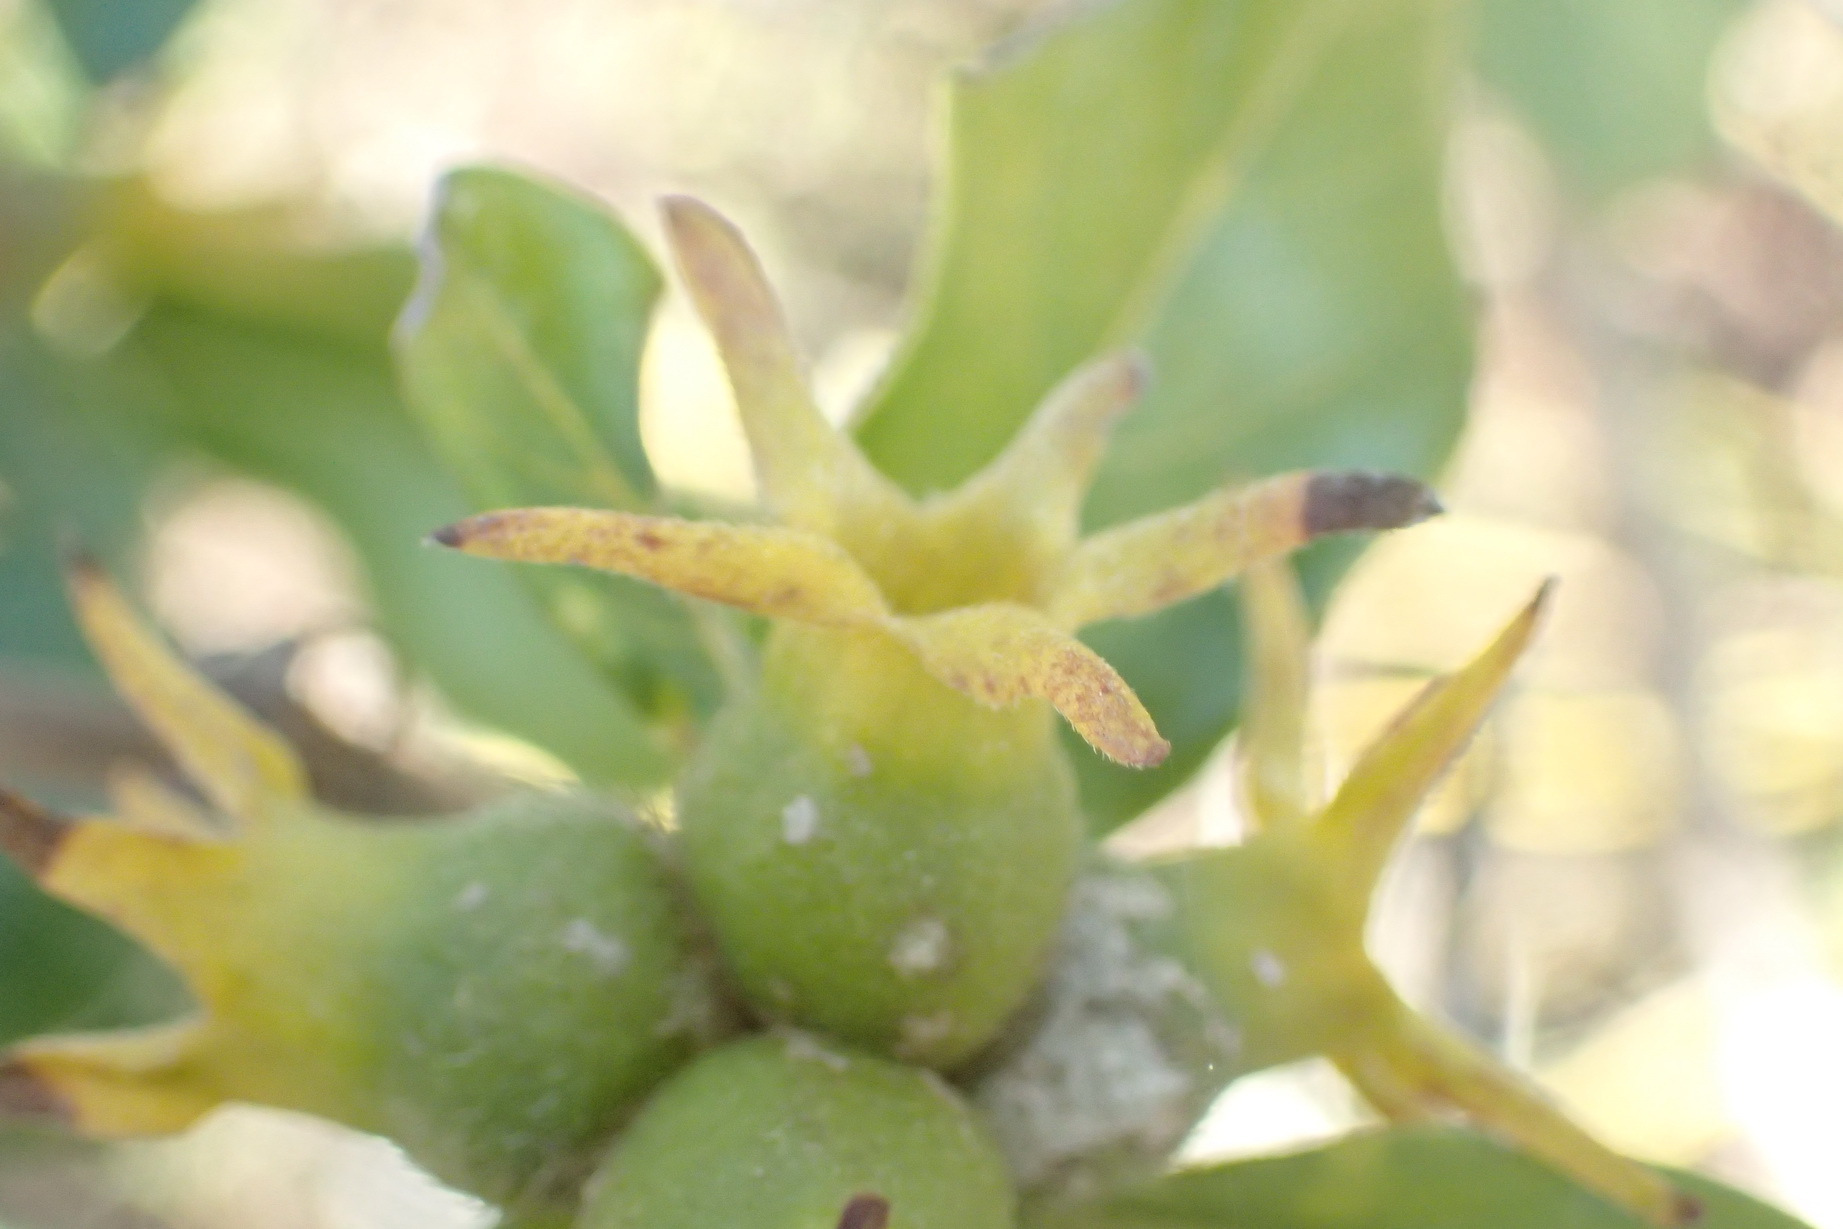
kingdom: Plantae
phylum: Tracheophyta
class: Magnoliopsida
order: Gentianales
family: Rubiaceae
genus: Burchellia
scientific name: Burchellia bubalina
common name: Wild pomegranate
